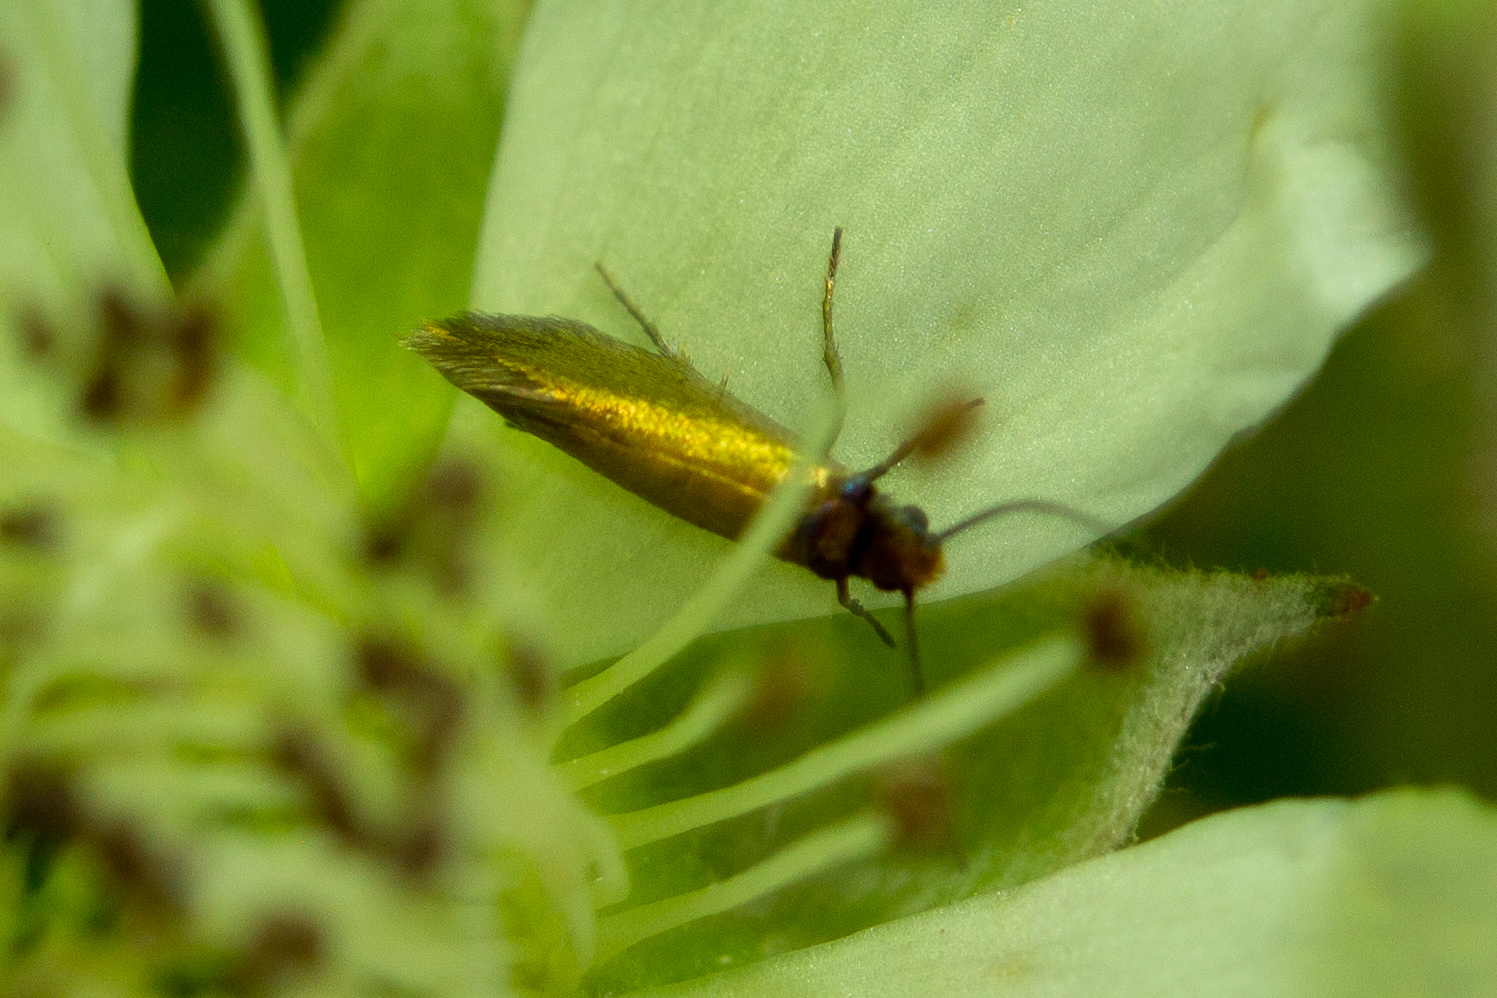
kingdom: Animalia
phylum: Arthropoda
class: Insecta
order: Lepidoptera
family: Micropterigidae
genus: Micropterix
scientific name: Micropterix calthella
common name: Plain gold
